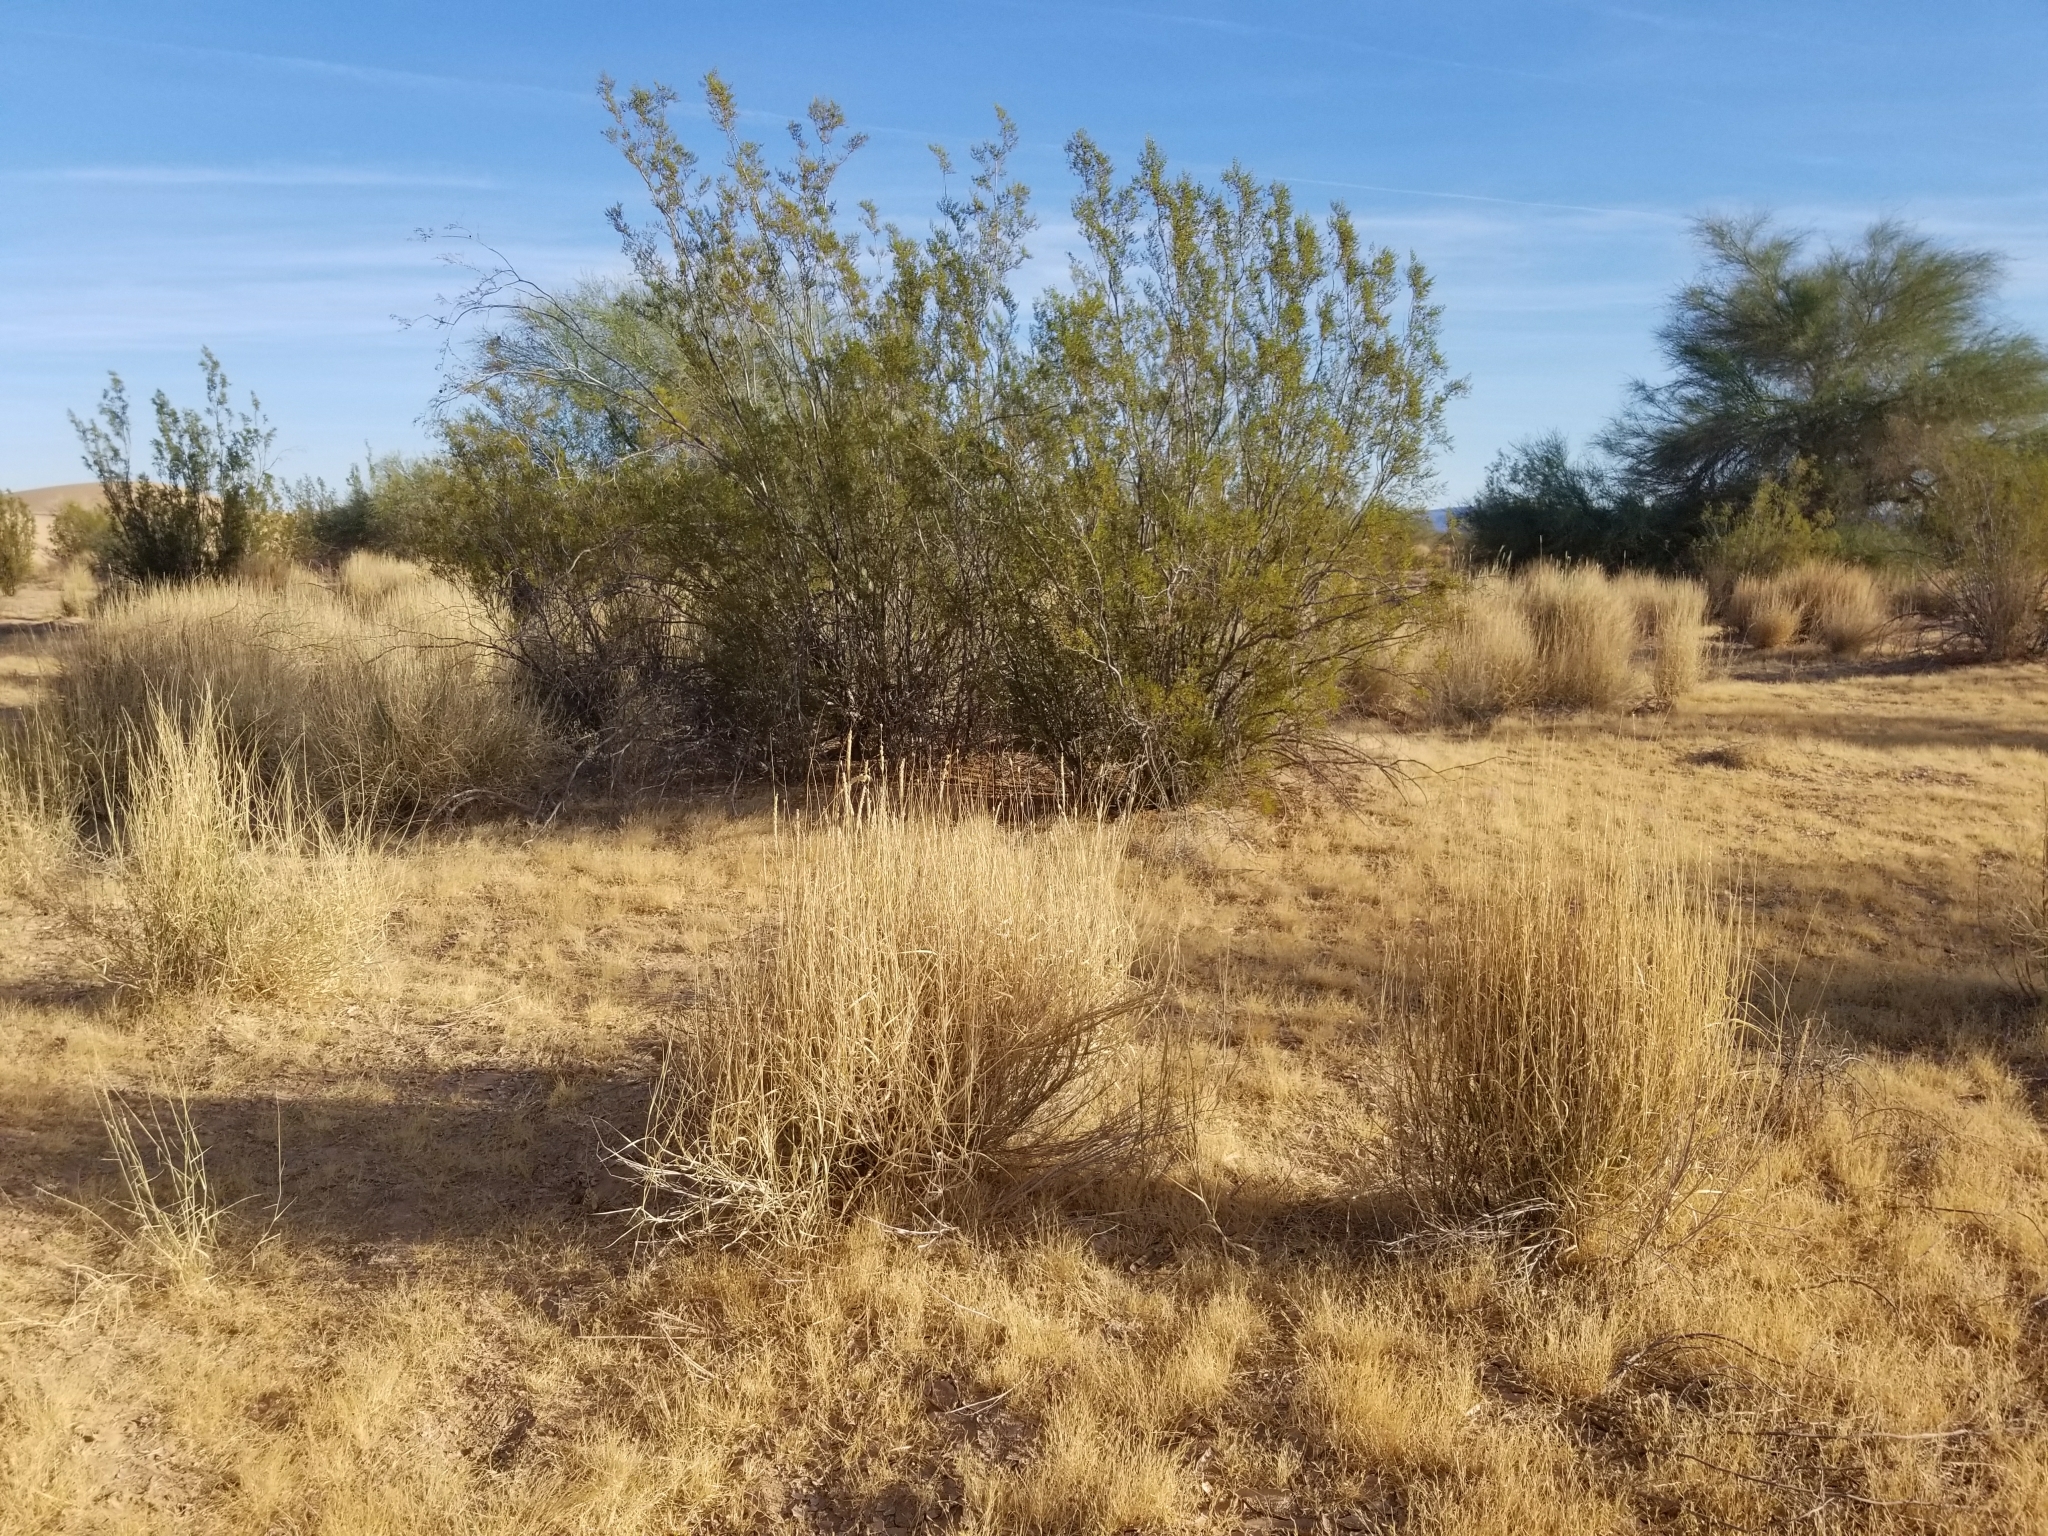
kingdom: Plantae
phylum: Tracheophyta
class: Liliopsida
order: Poales
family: Poaceae
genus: Hilaria
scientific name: Hilaria rigida
